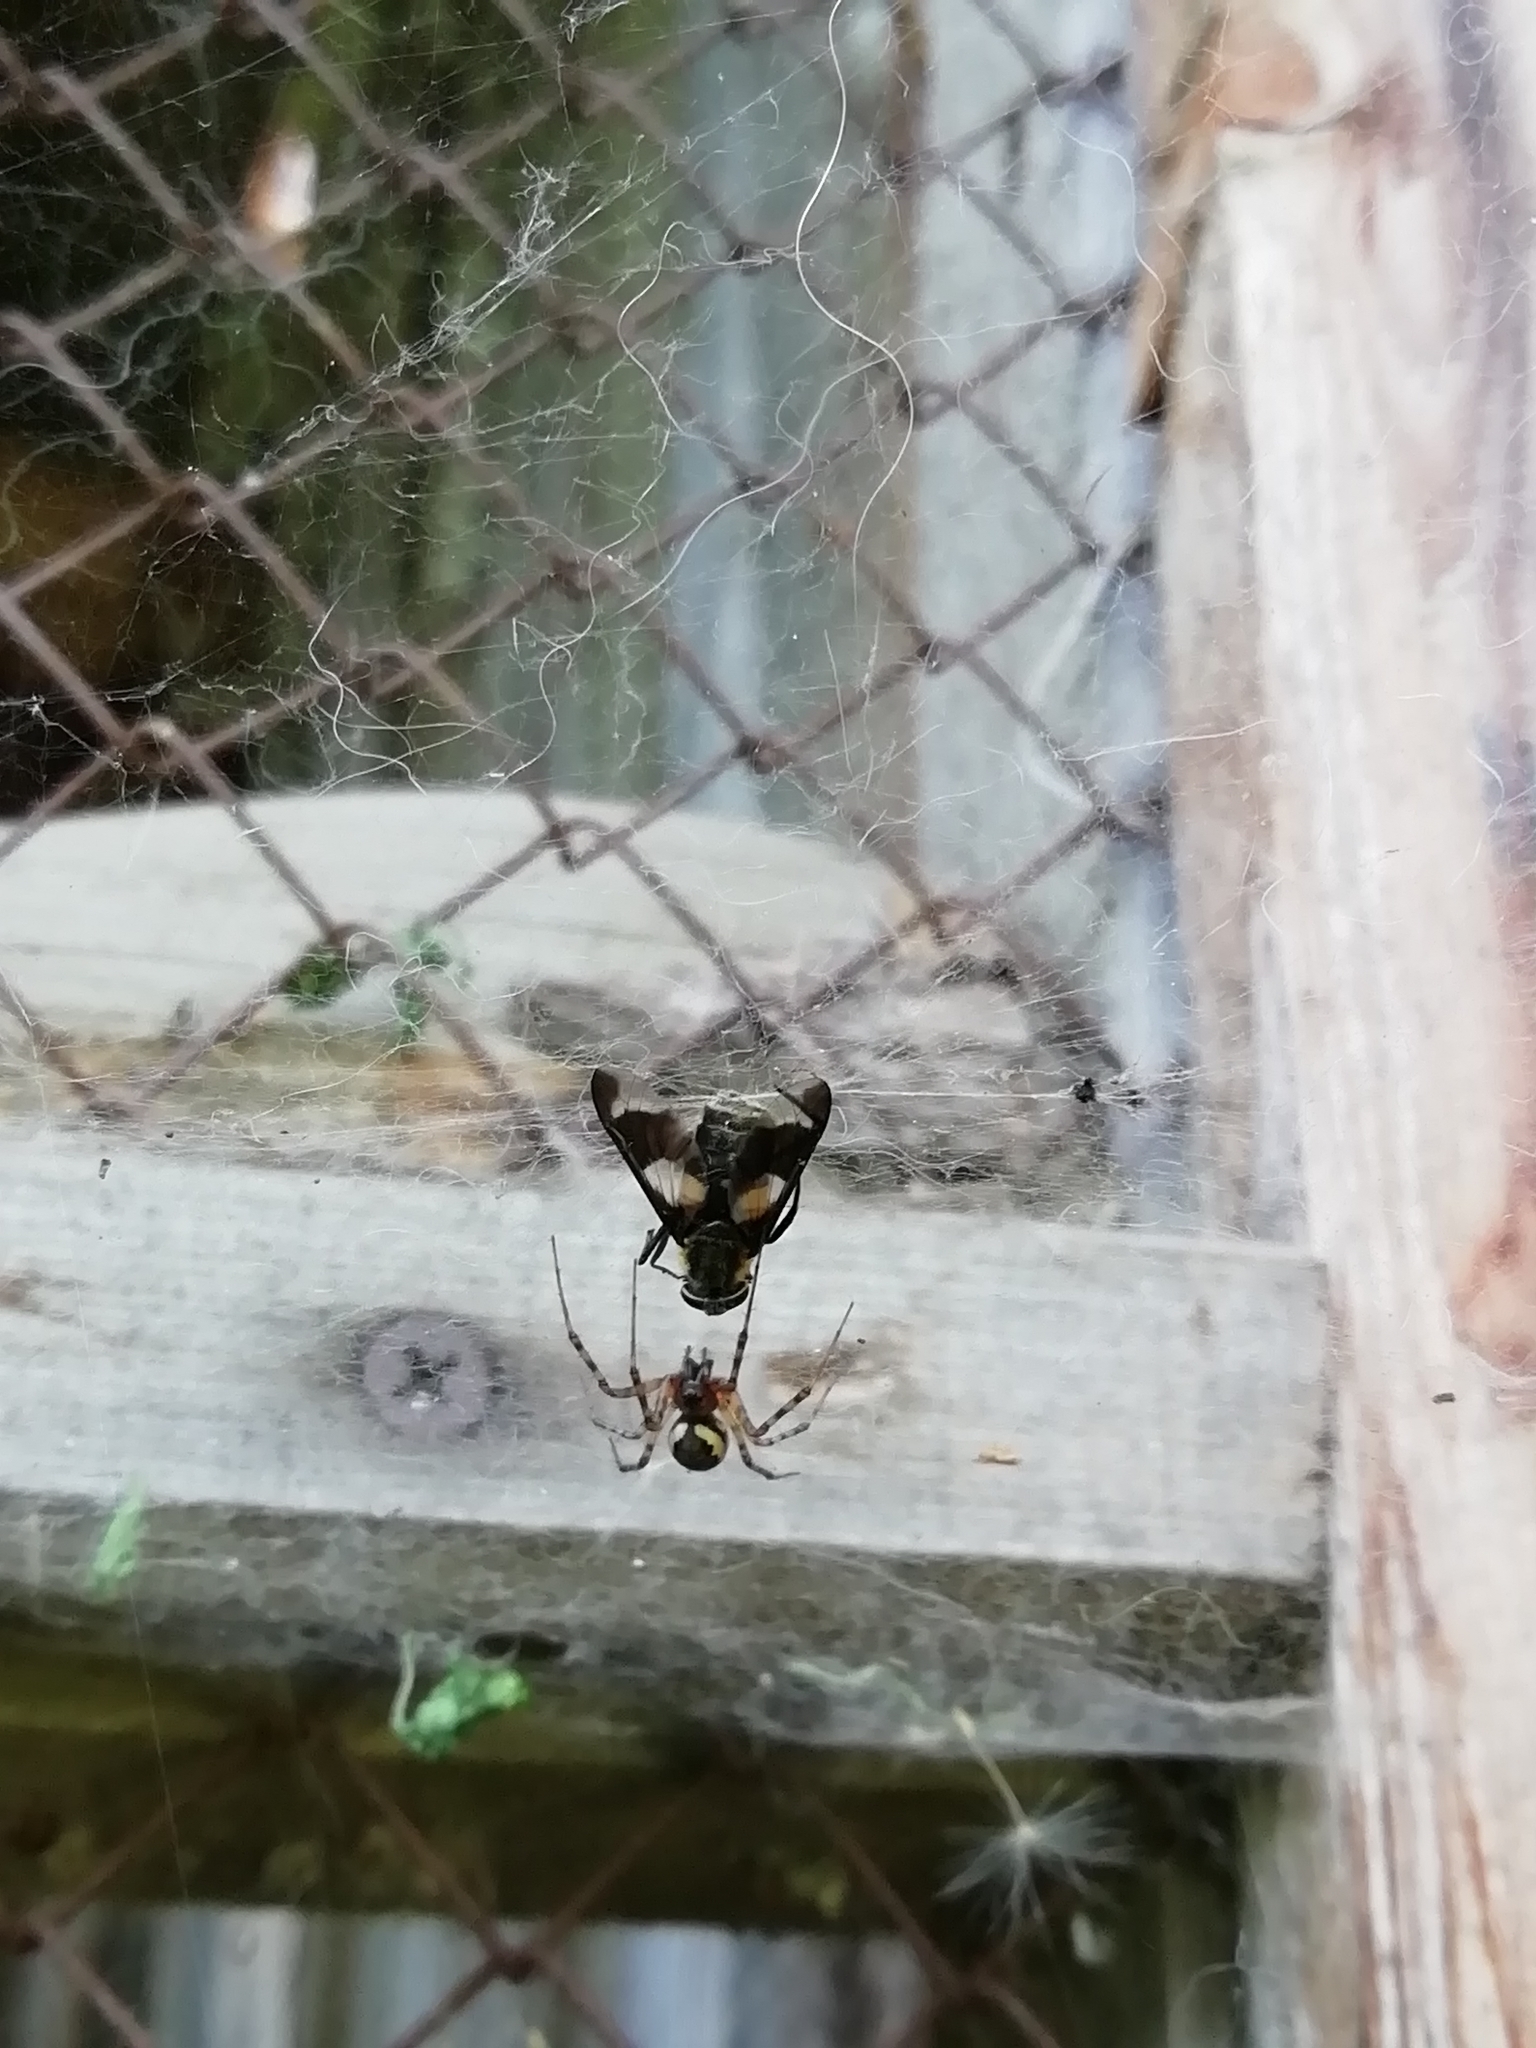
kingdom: Animalia
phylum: Arthropoda
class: Arachnida
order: Araneae
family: Linyphiidae
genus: Neriene
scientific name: Neriene montana
